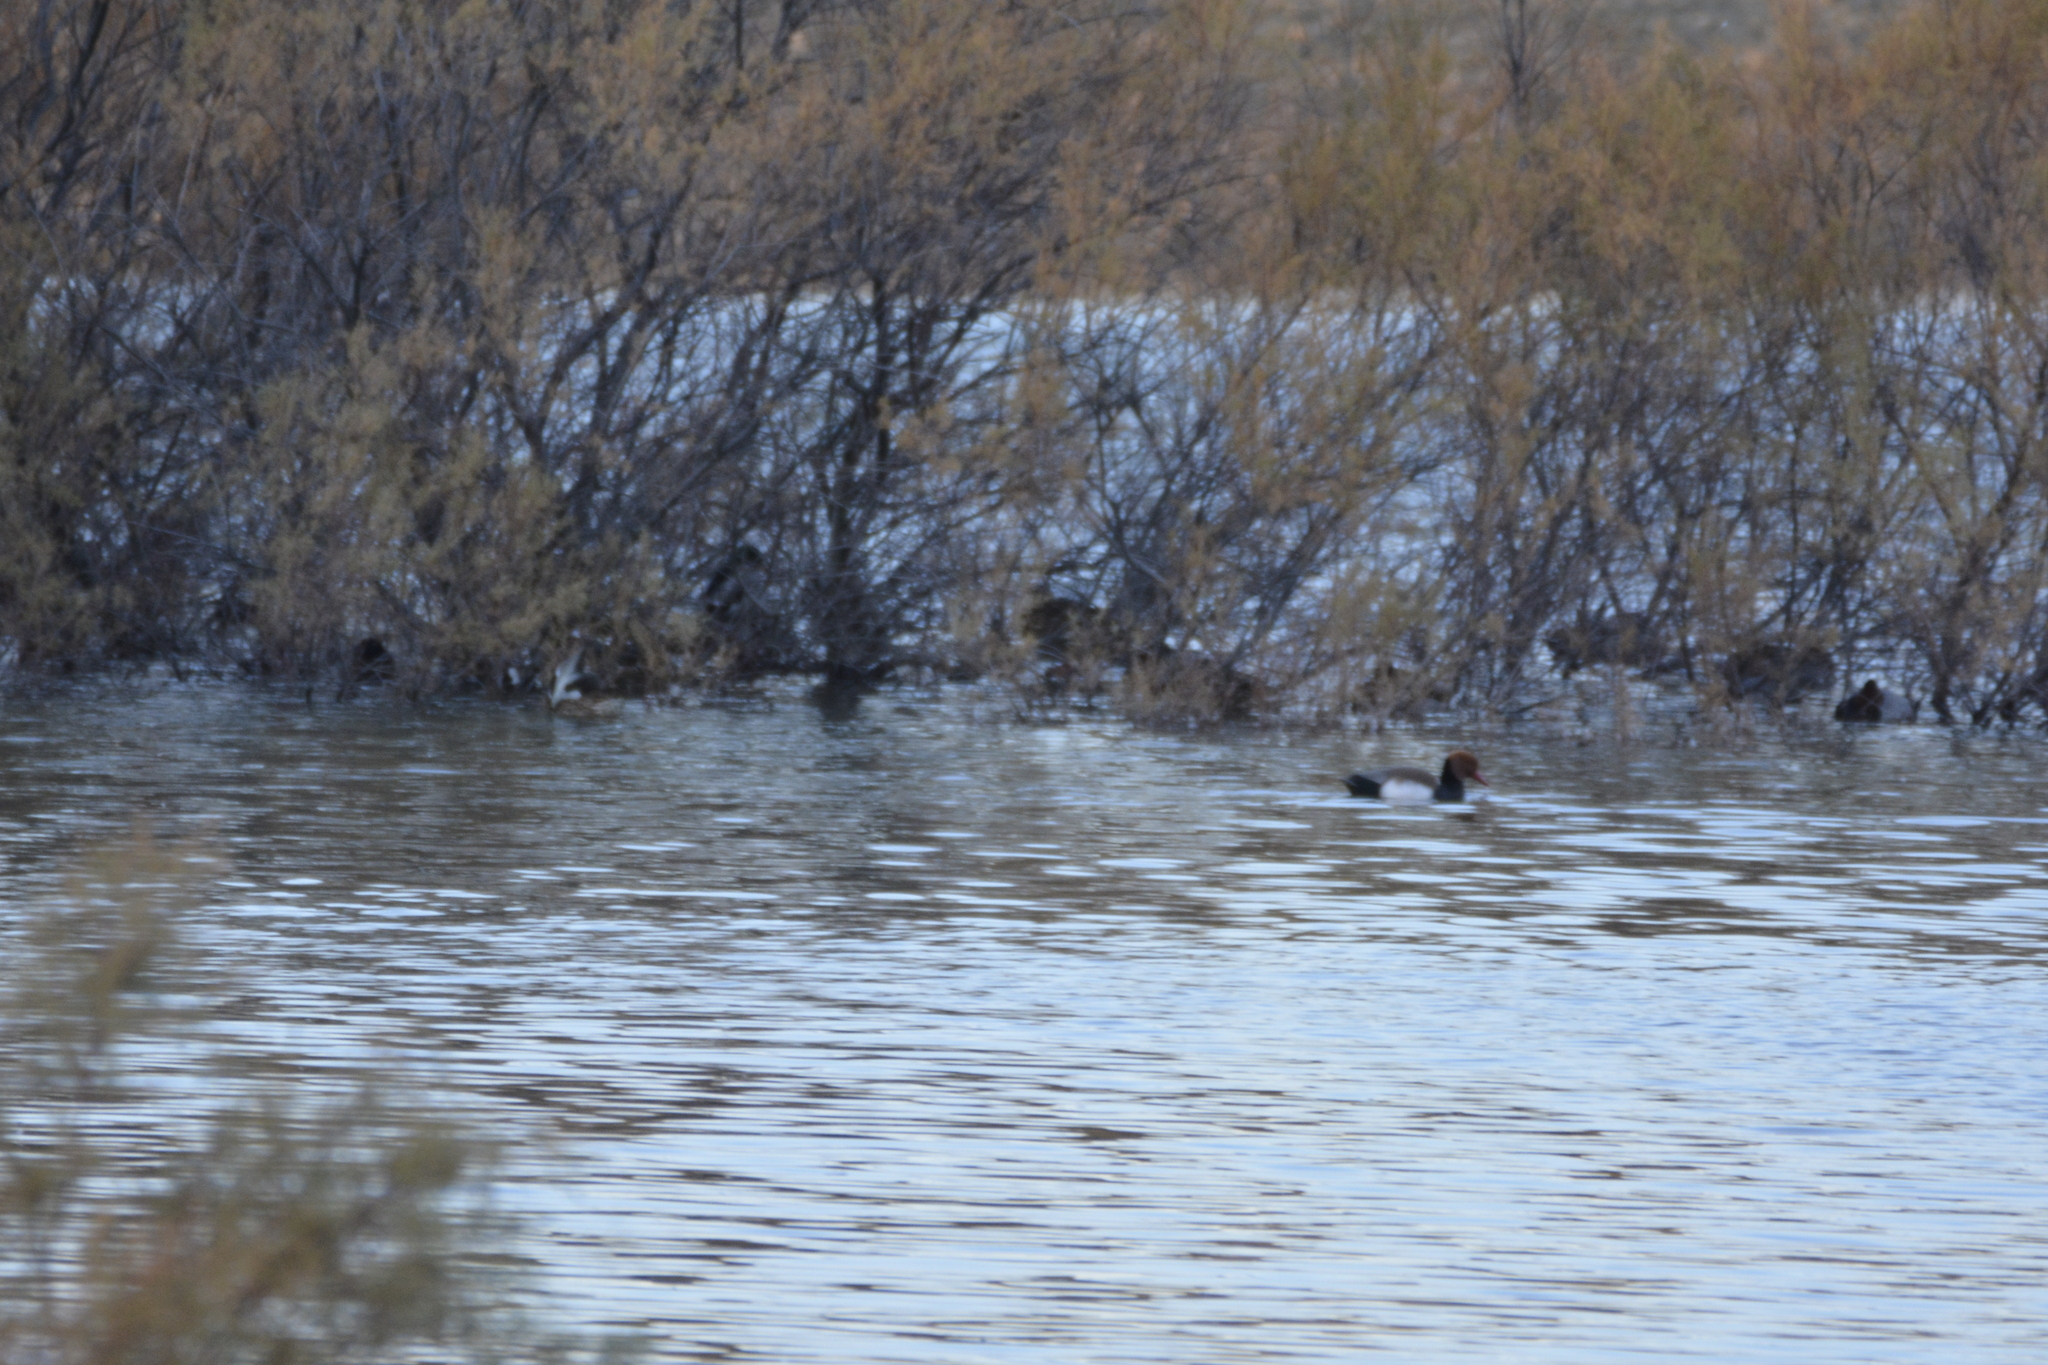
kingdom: Animalia
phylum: Chordata
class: Aves
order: Anseriformes
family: Anatidae
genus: Netta
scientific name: Netta rufina
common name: Red-crested pochard
